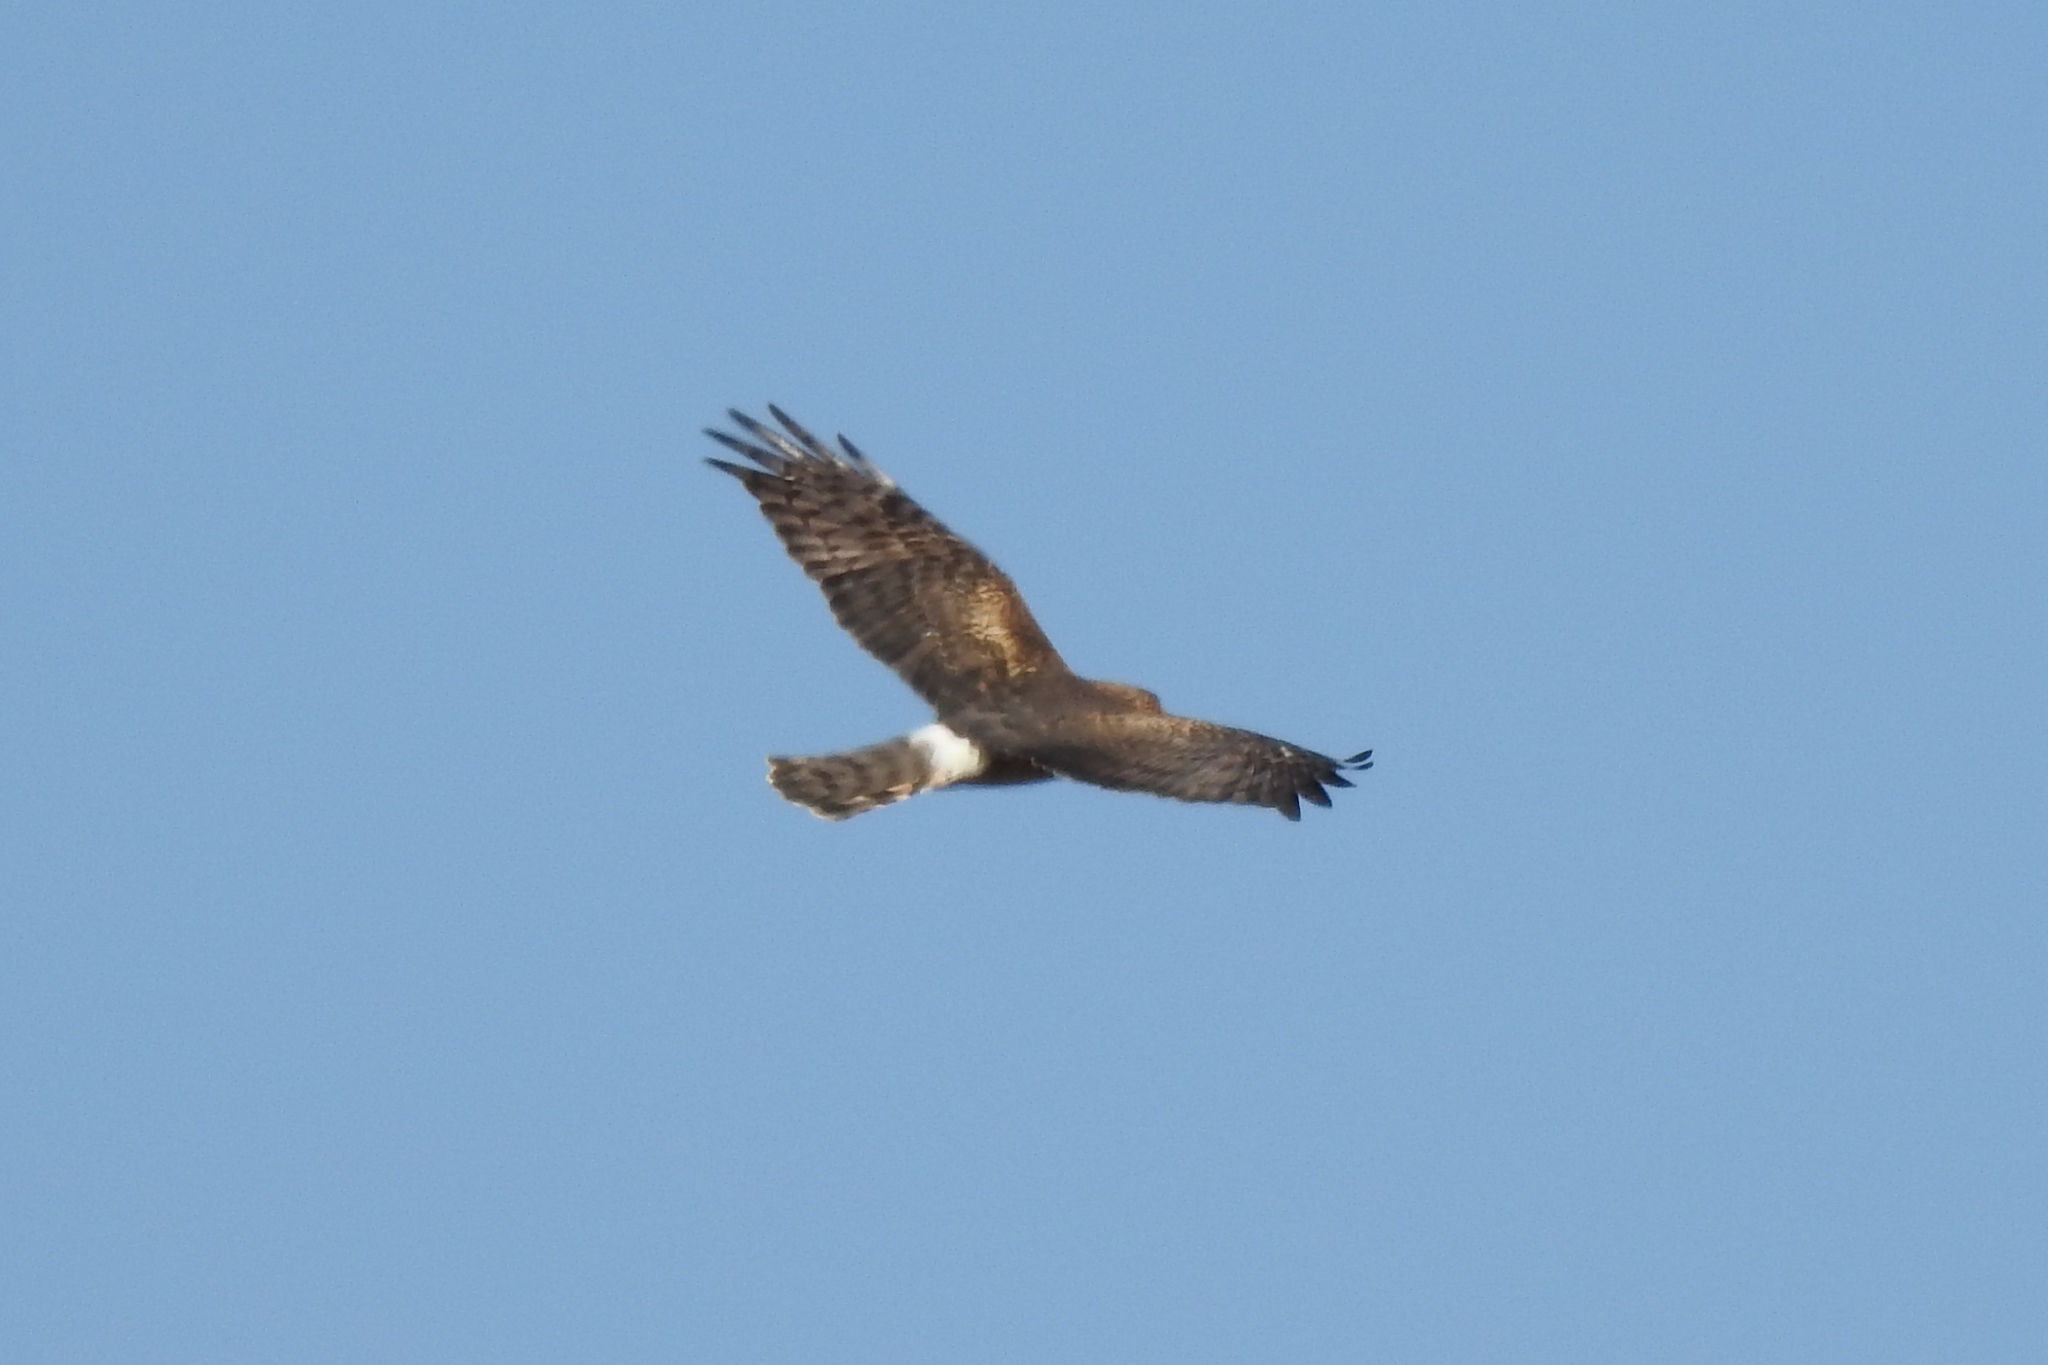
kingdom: Animalia
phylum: Chordata
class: Aves
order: Accipitriformes
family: Accipitridae
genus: Circus
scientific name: Circus cyaneus
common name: Hen harrier
